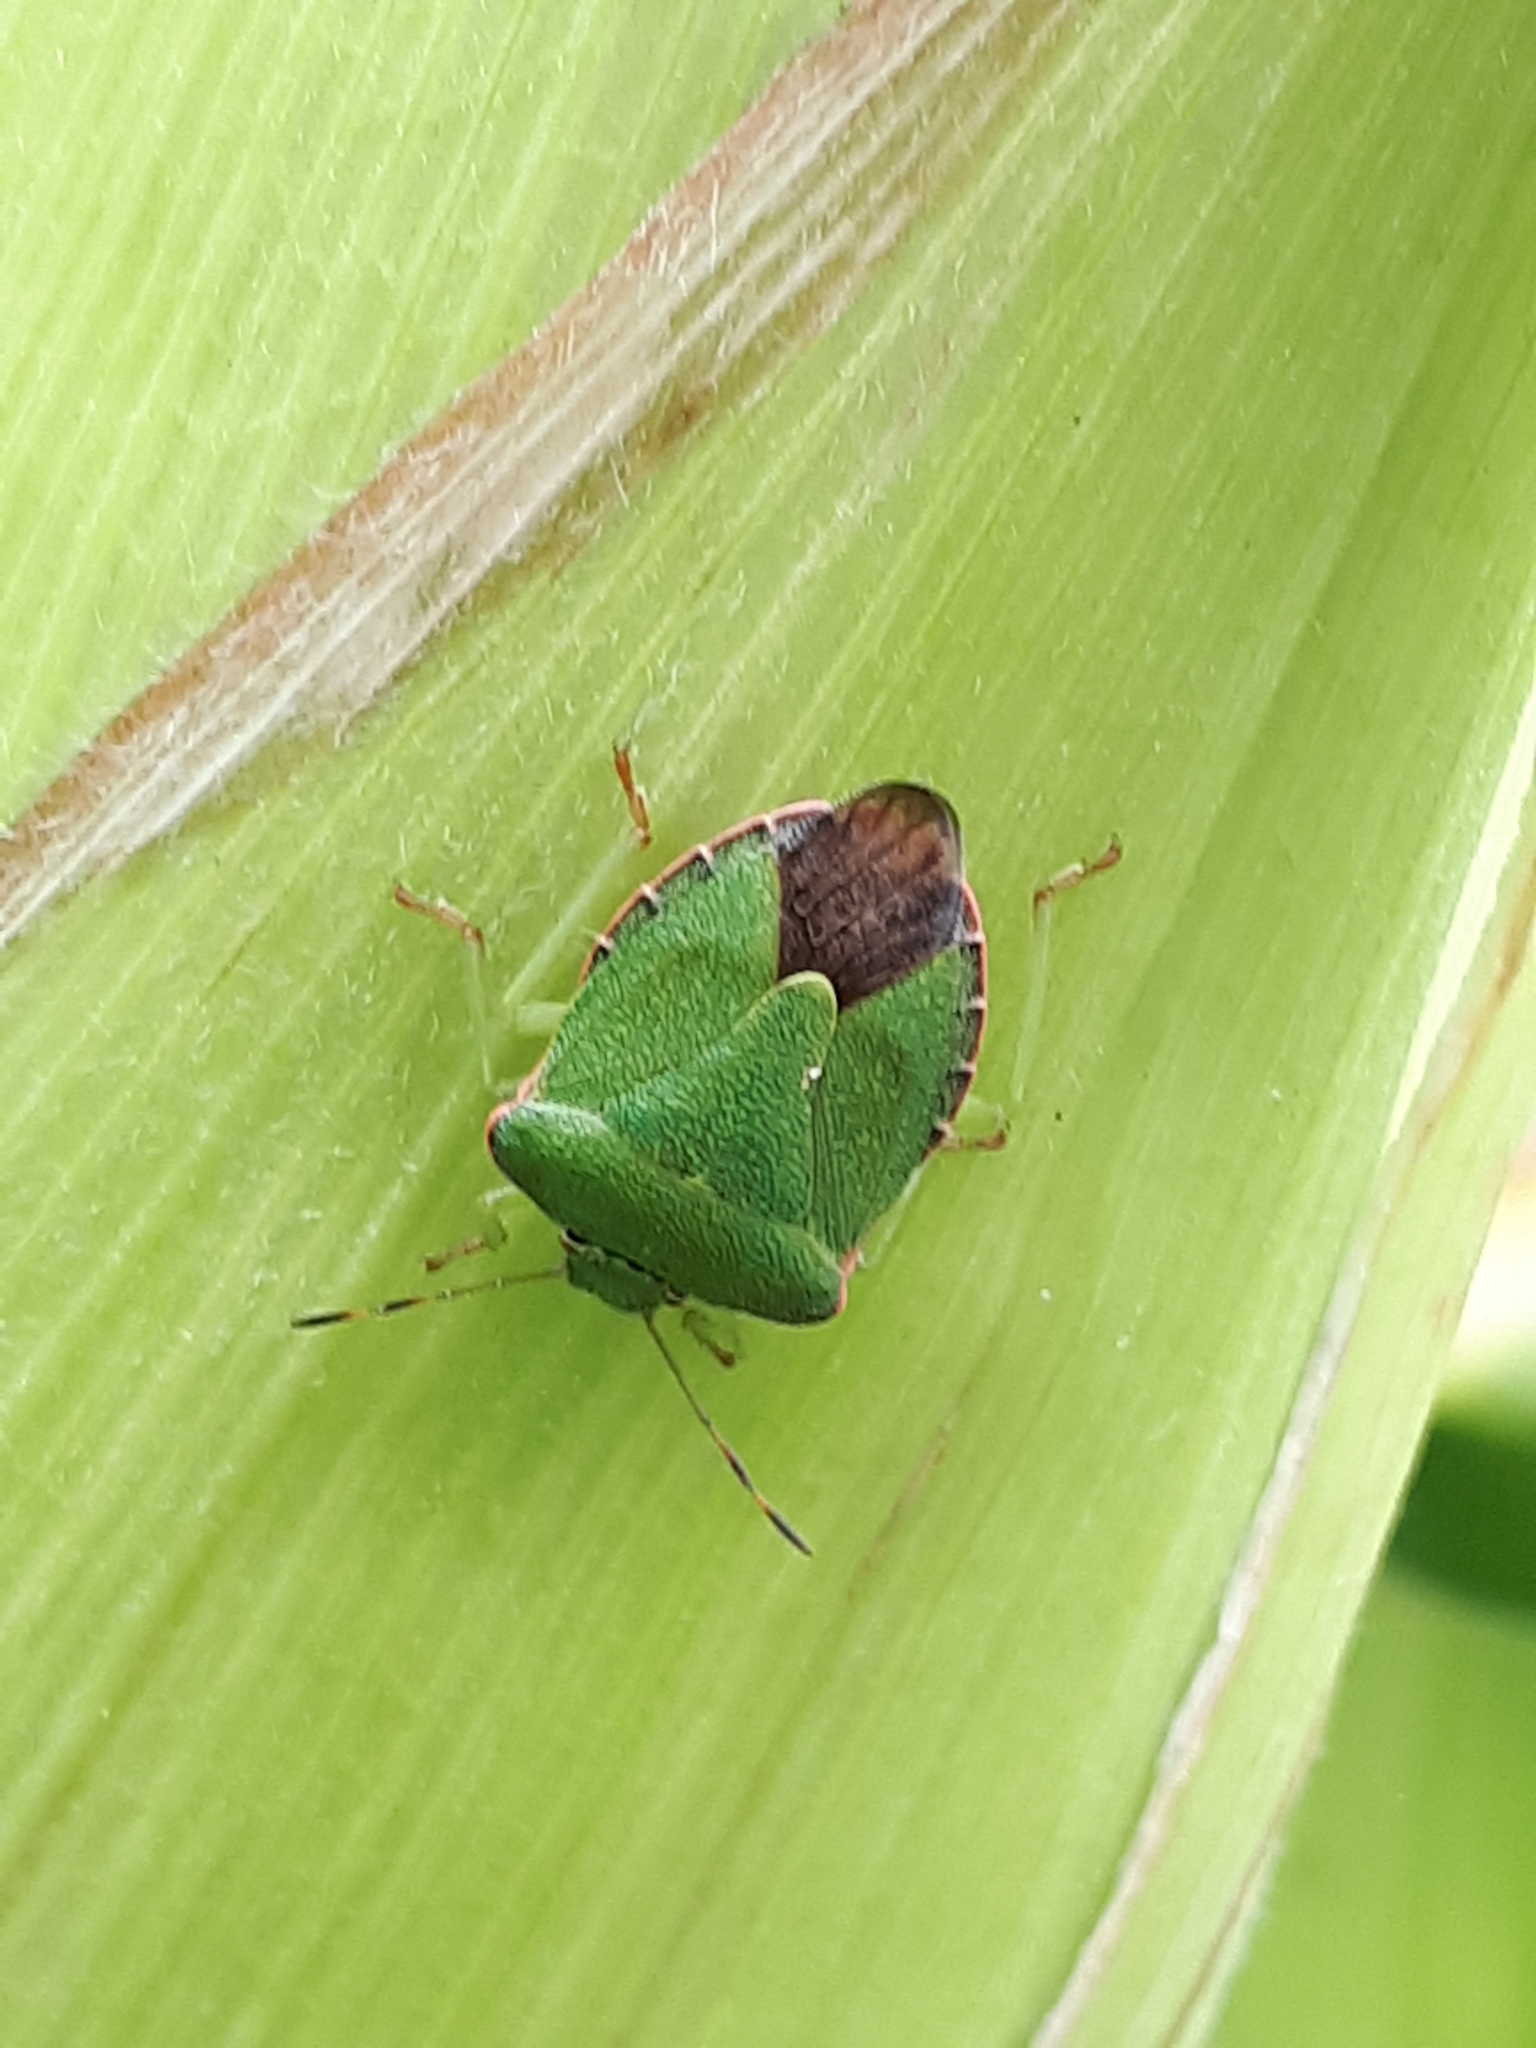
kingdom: Animalia
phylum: Arthropoda
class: Insecta
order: Hemiptera
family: Pentatomidae
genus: Palomena
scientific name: Palomena prasina
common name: Green shieldbug
